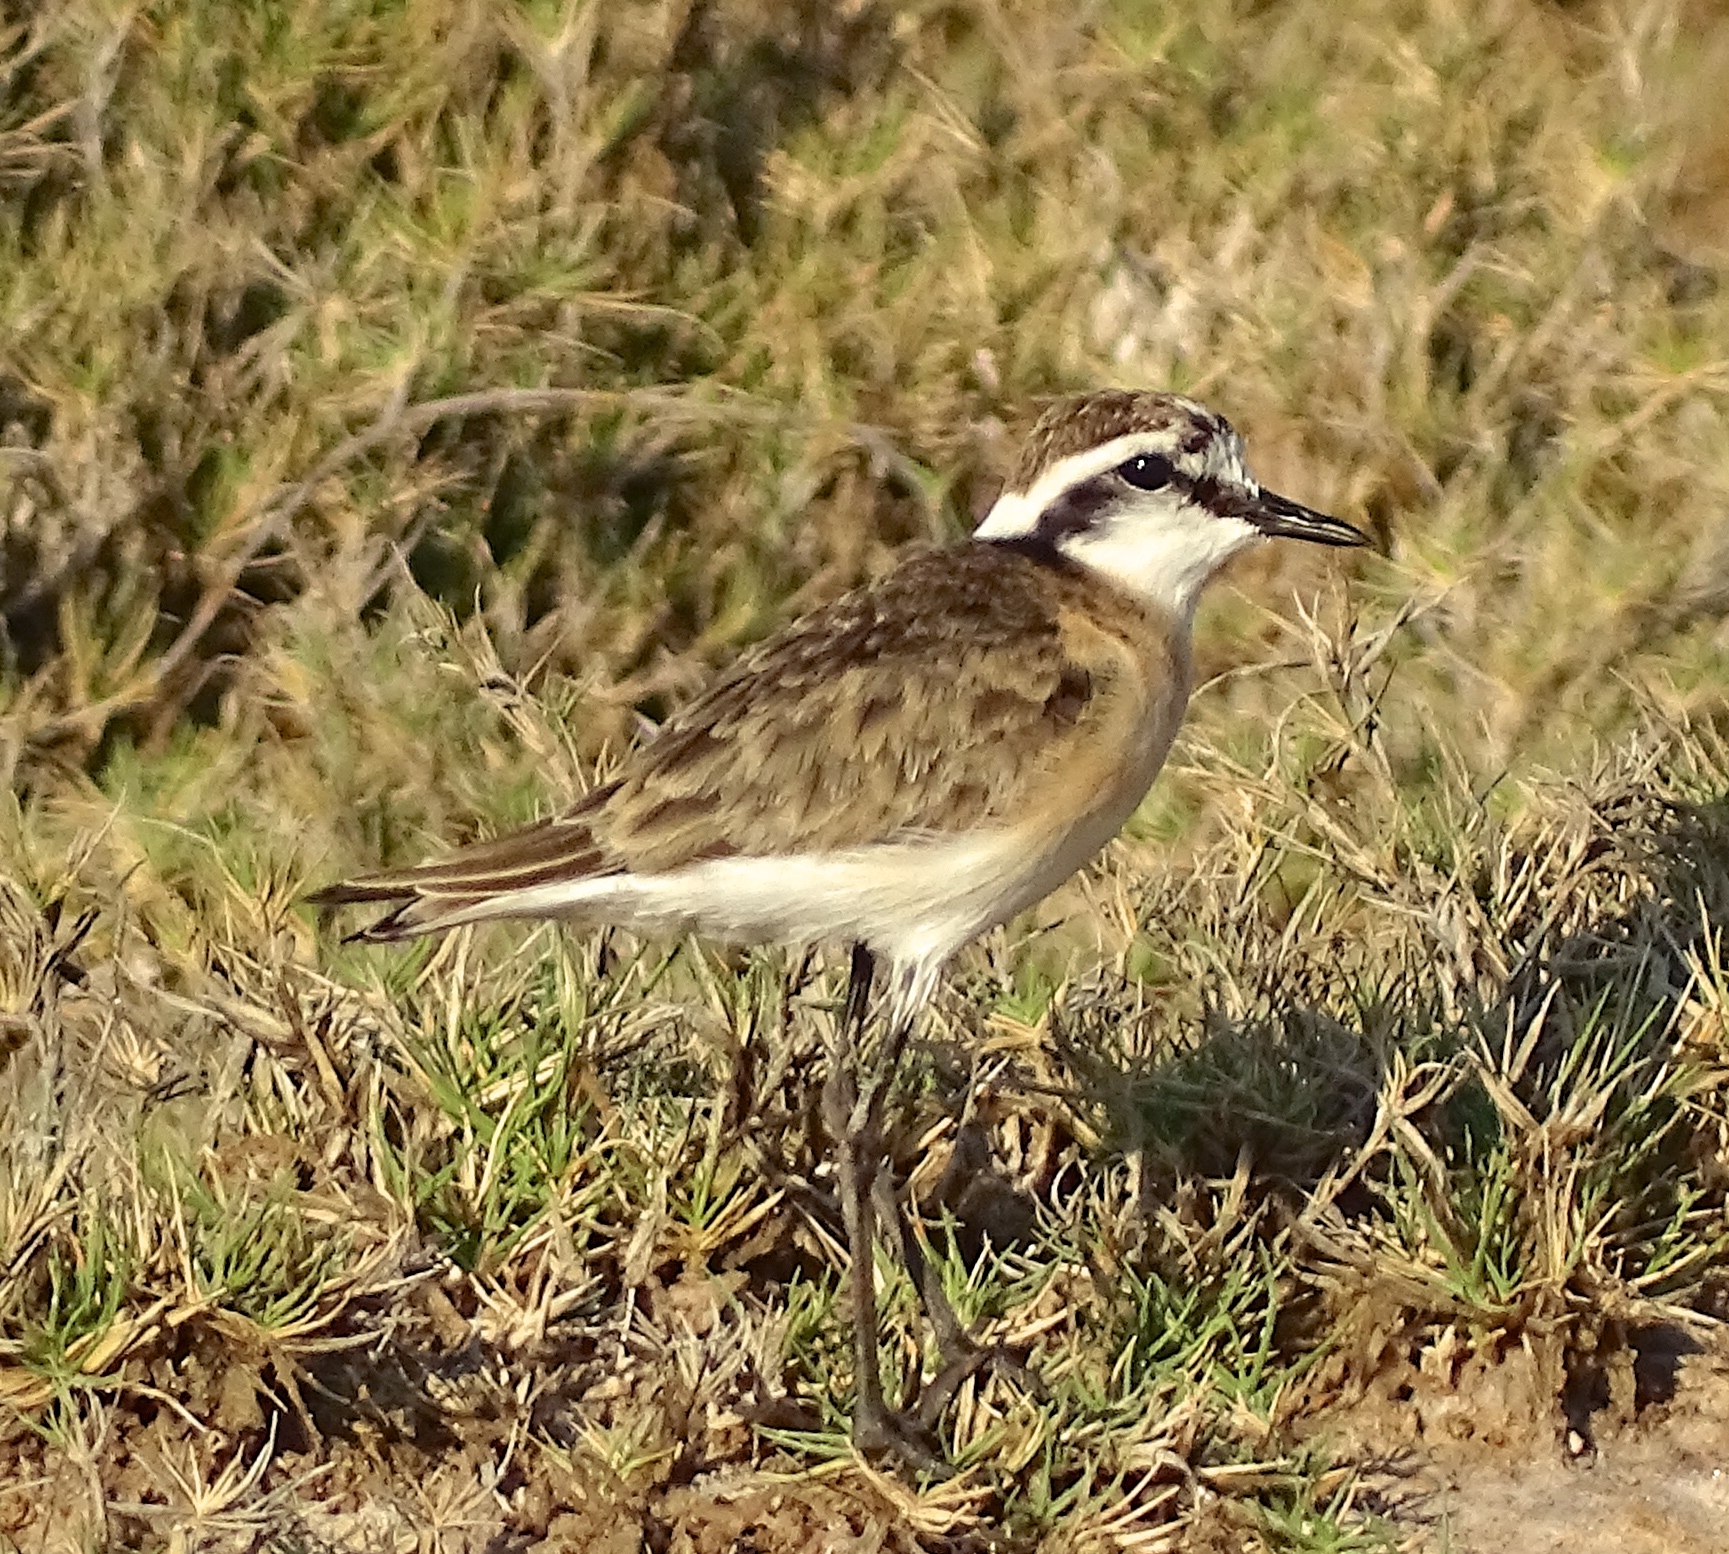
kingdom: Animalia
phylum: Chordata
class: Aves
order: Charadriiformes
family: Charadriidae
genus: Anarhynchus
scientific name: Anarhynchus
